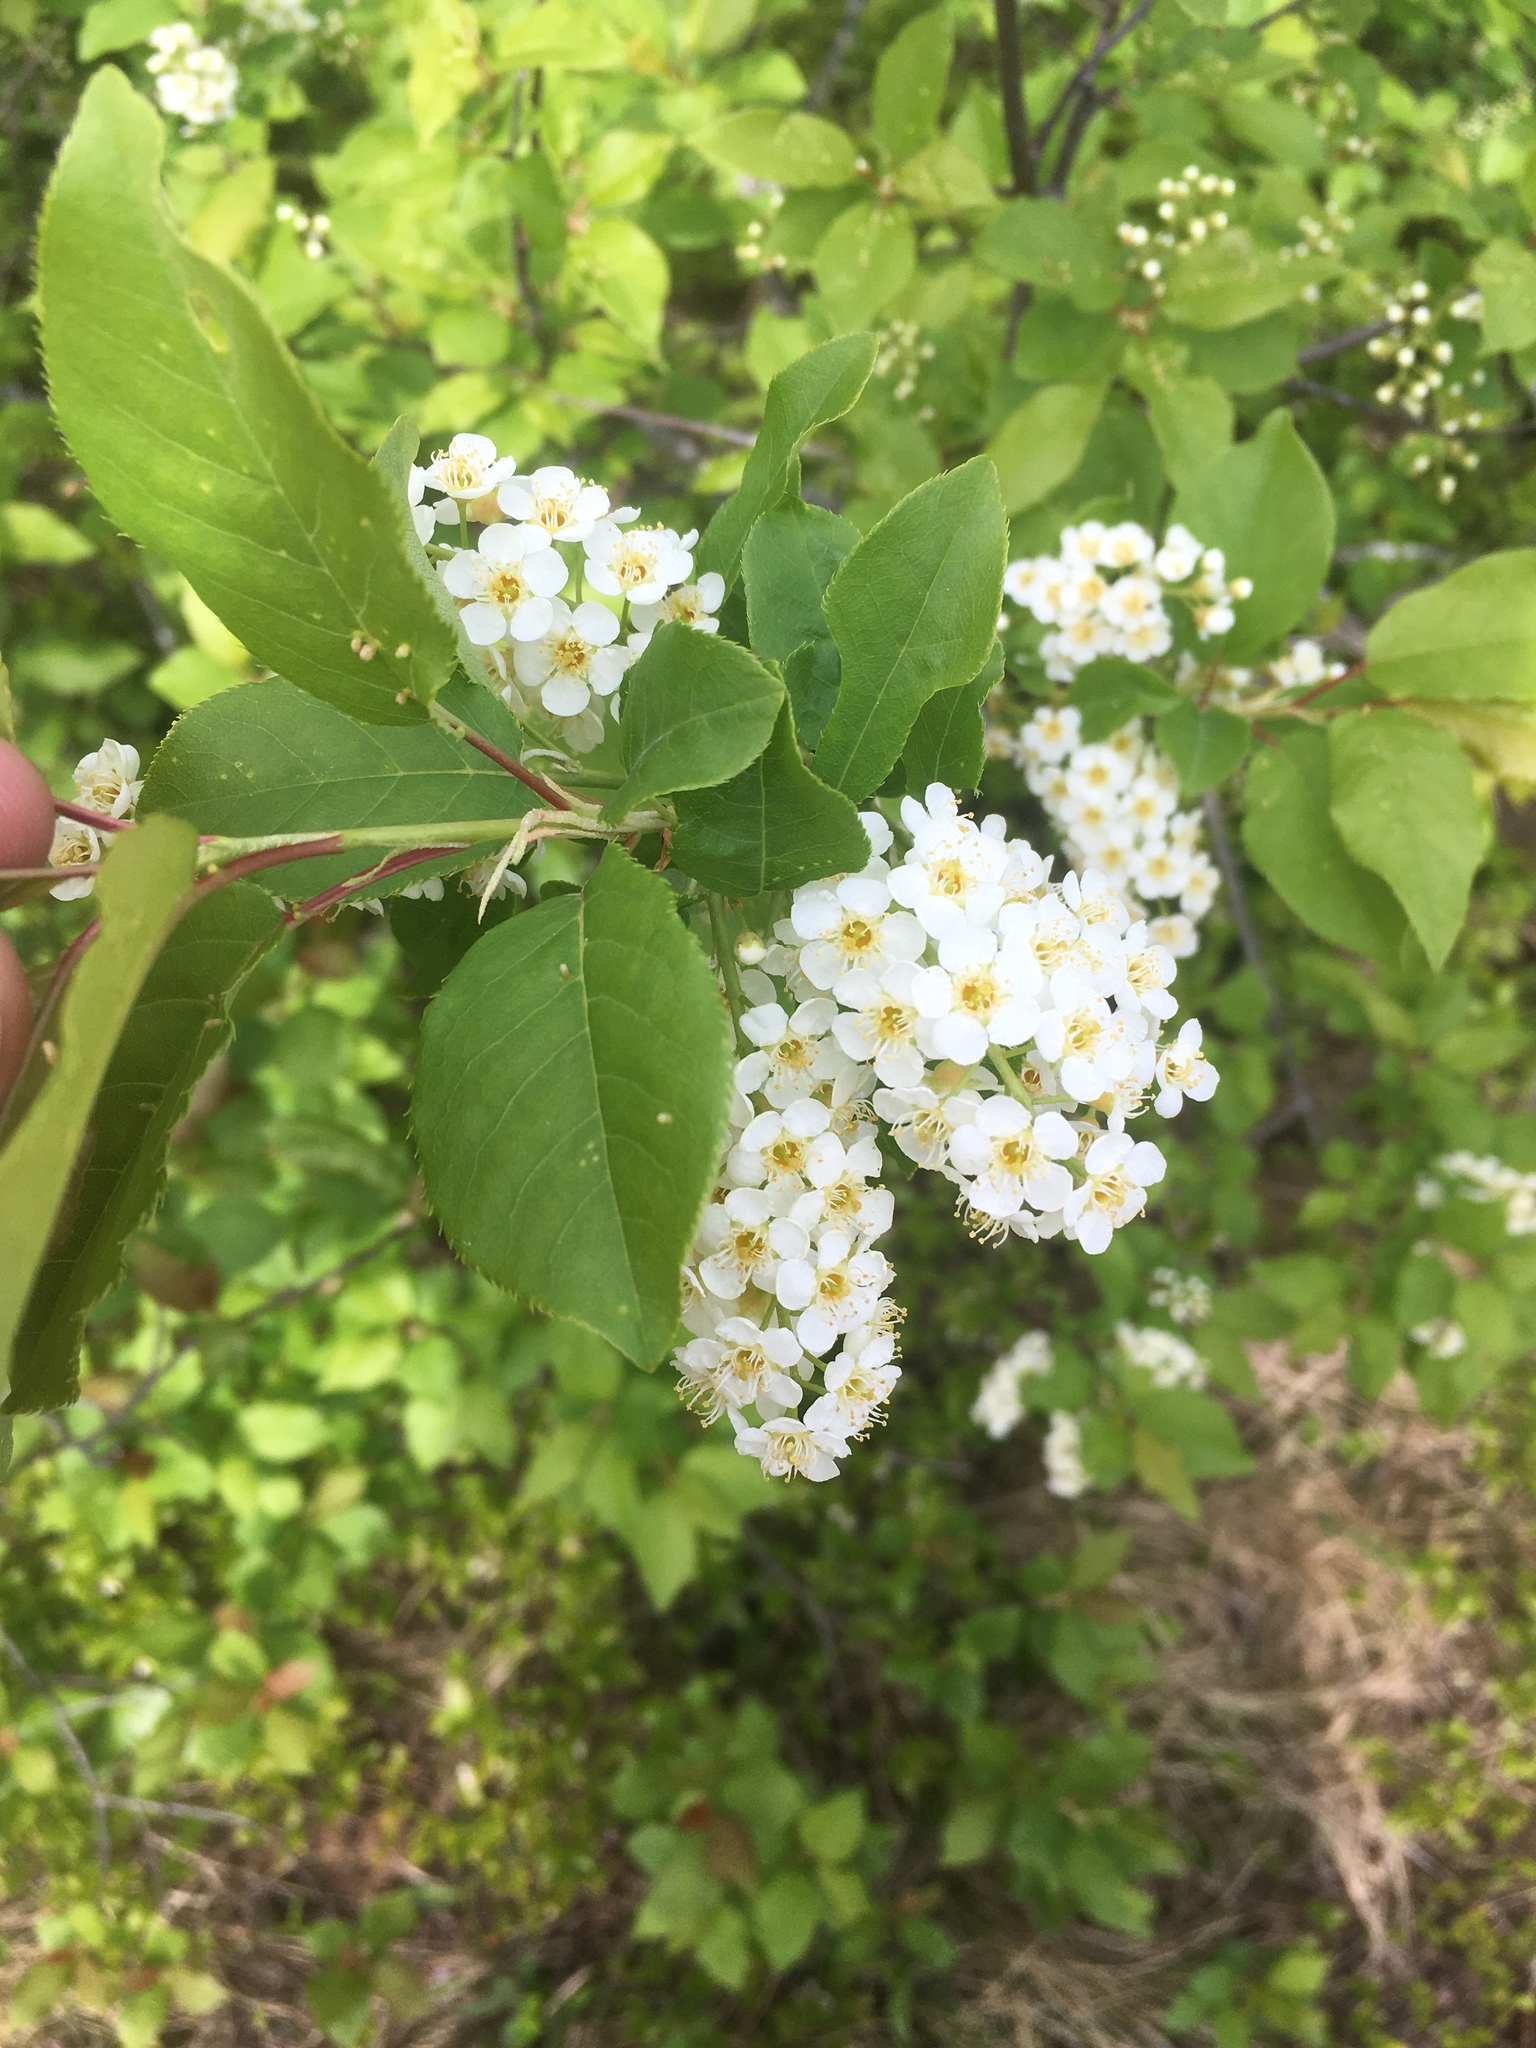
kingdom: Plantae
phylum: Tracheophyta
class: Magnoliopsida
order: Rosales
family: Rosaceae
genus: Prunus
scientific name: Prunus virginiana
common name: Chokecherry
